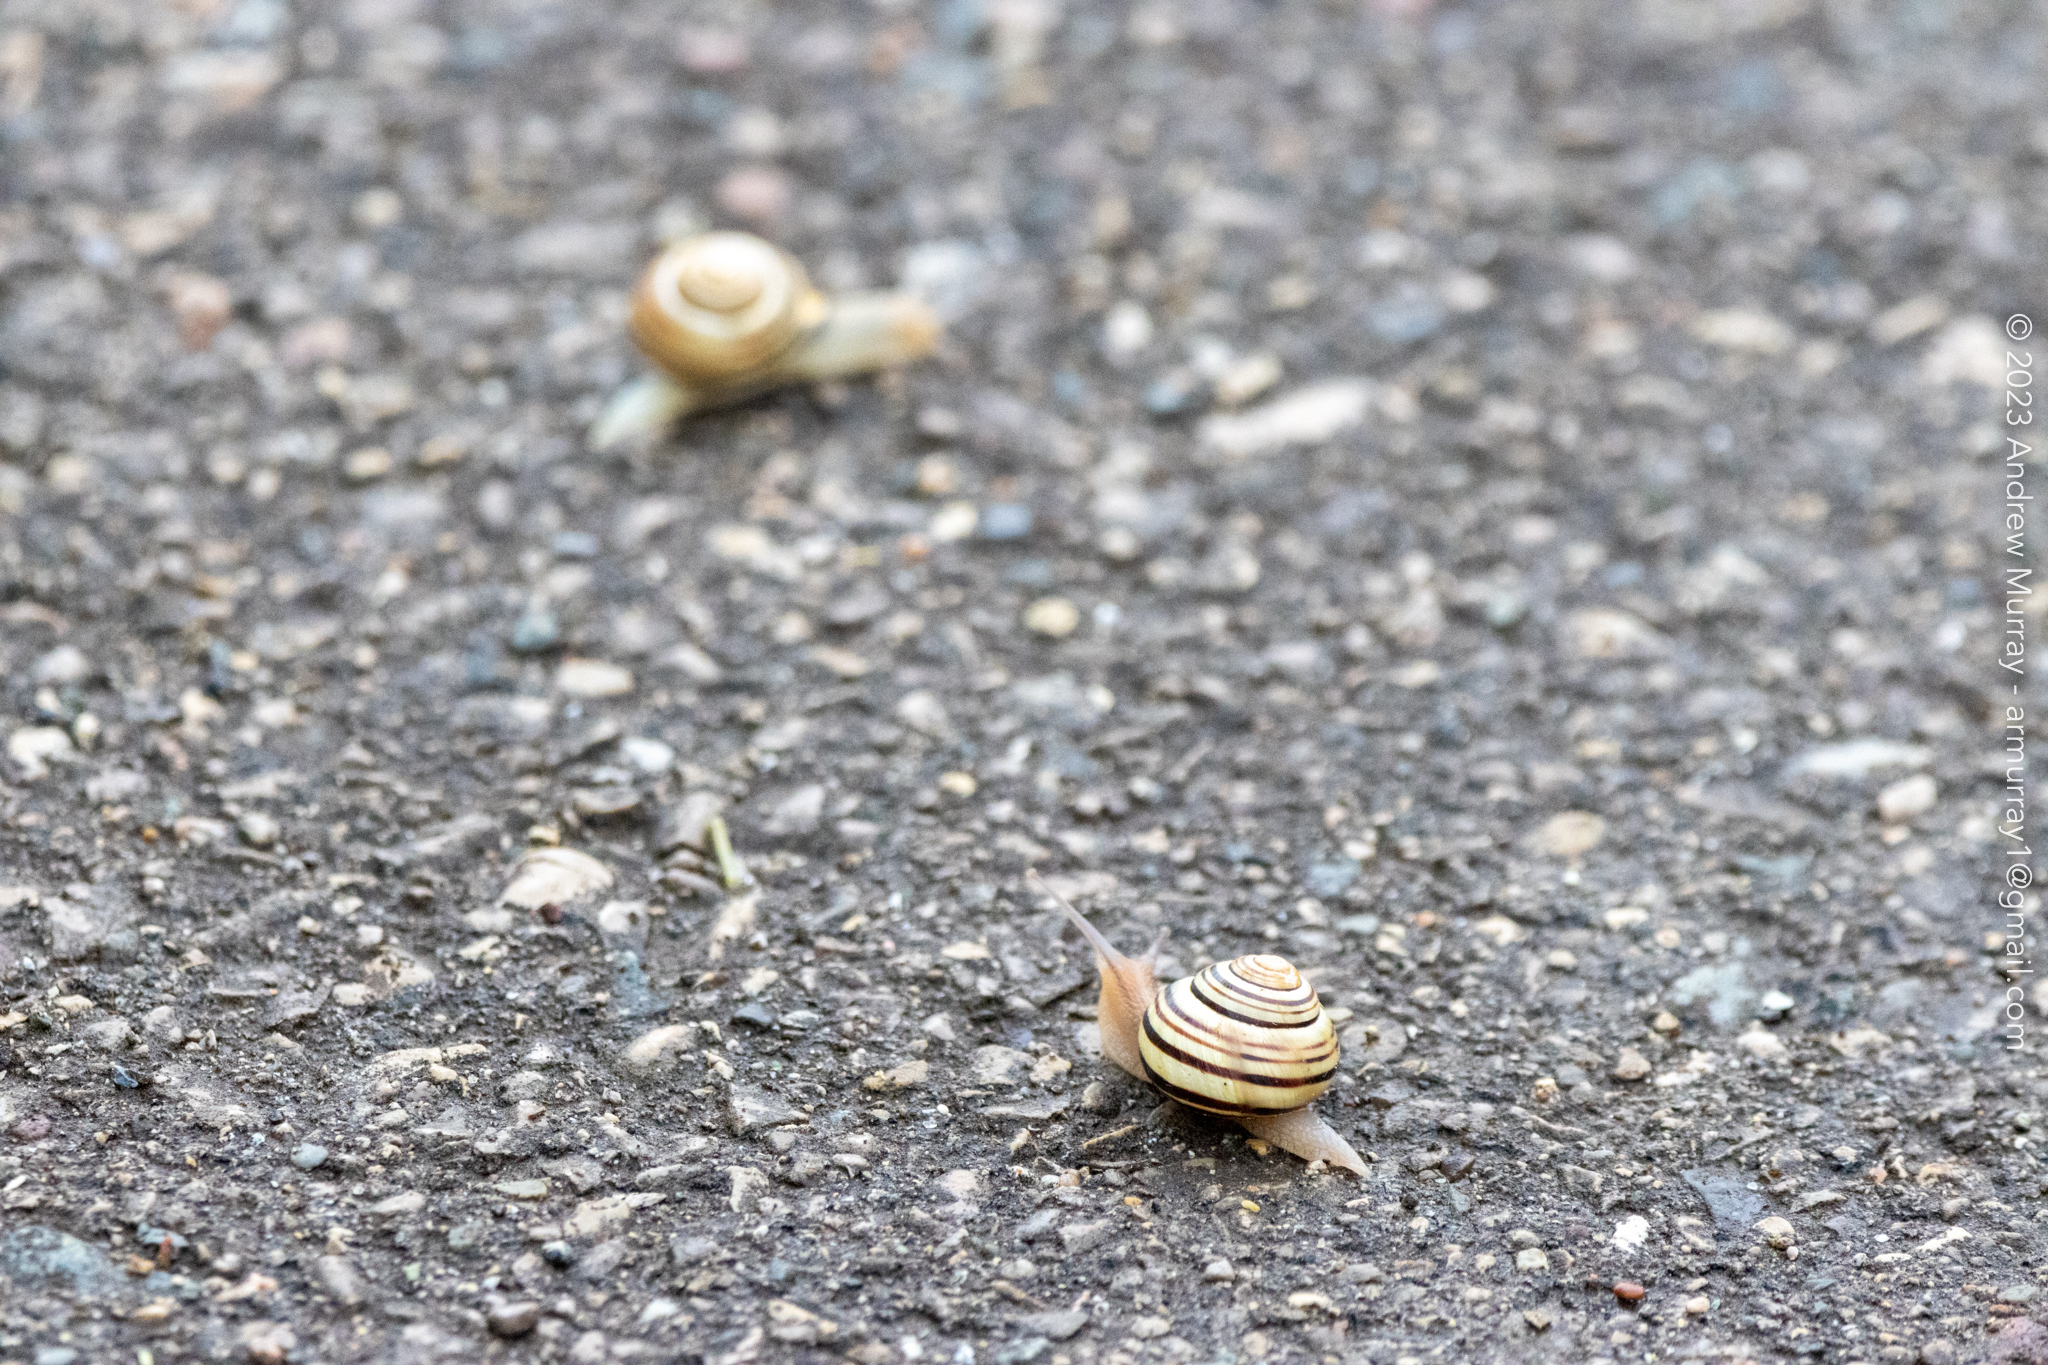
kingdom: Animalia
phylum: Mollusca
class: Gastropoda
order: Stylommatophora
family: Helicidae
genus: Cepaea
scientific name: Cepaea nemoralis
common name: Grovesnail
